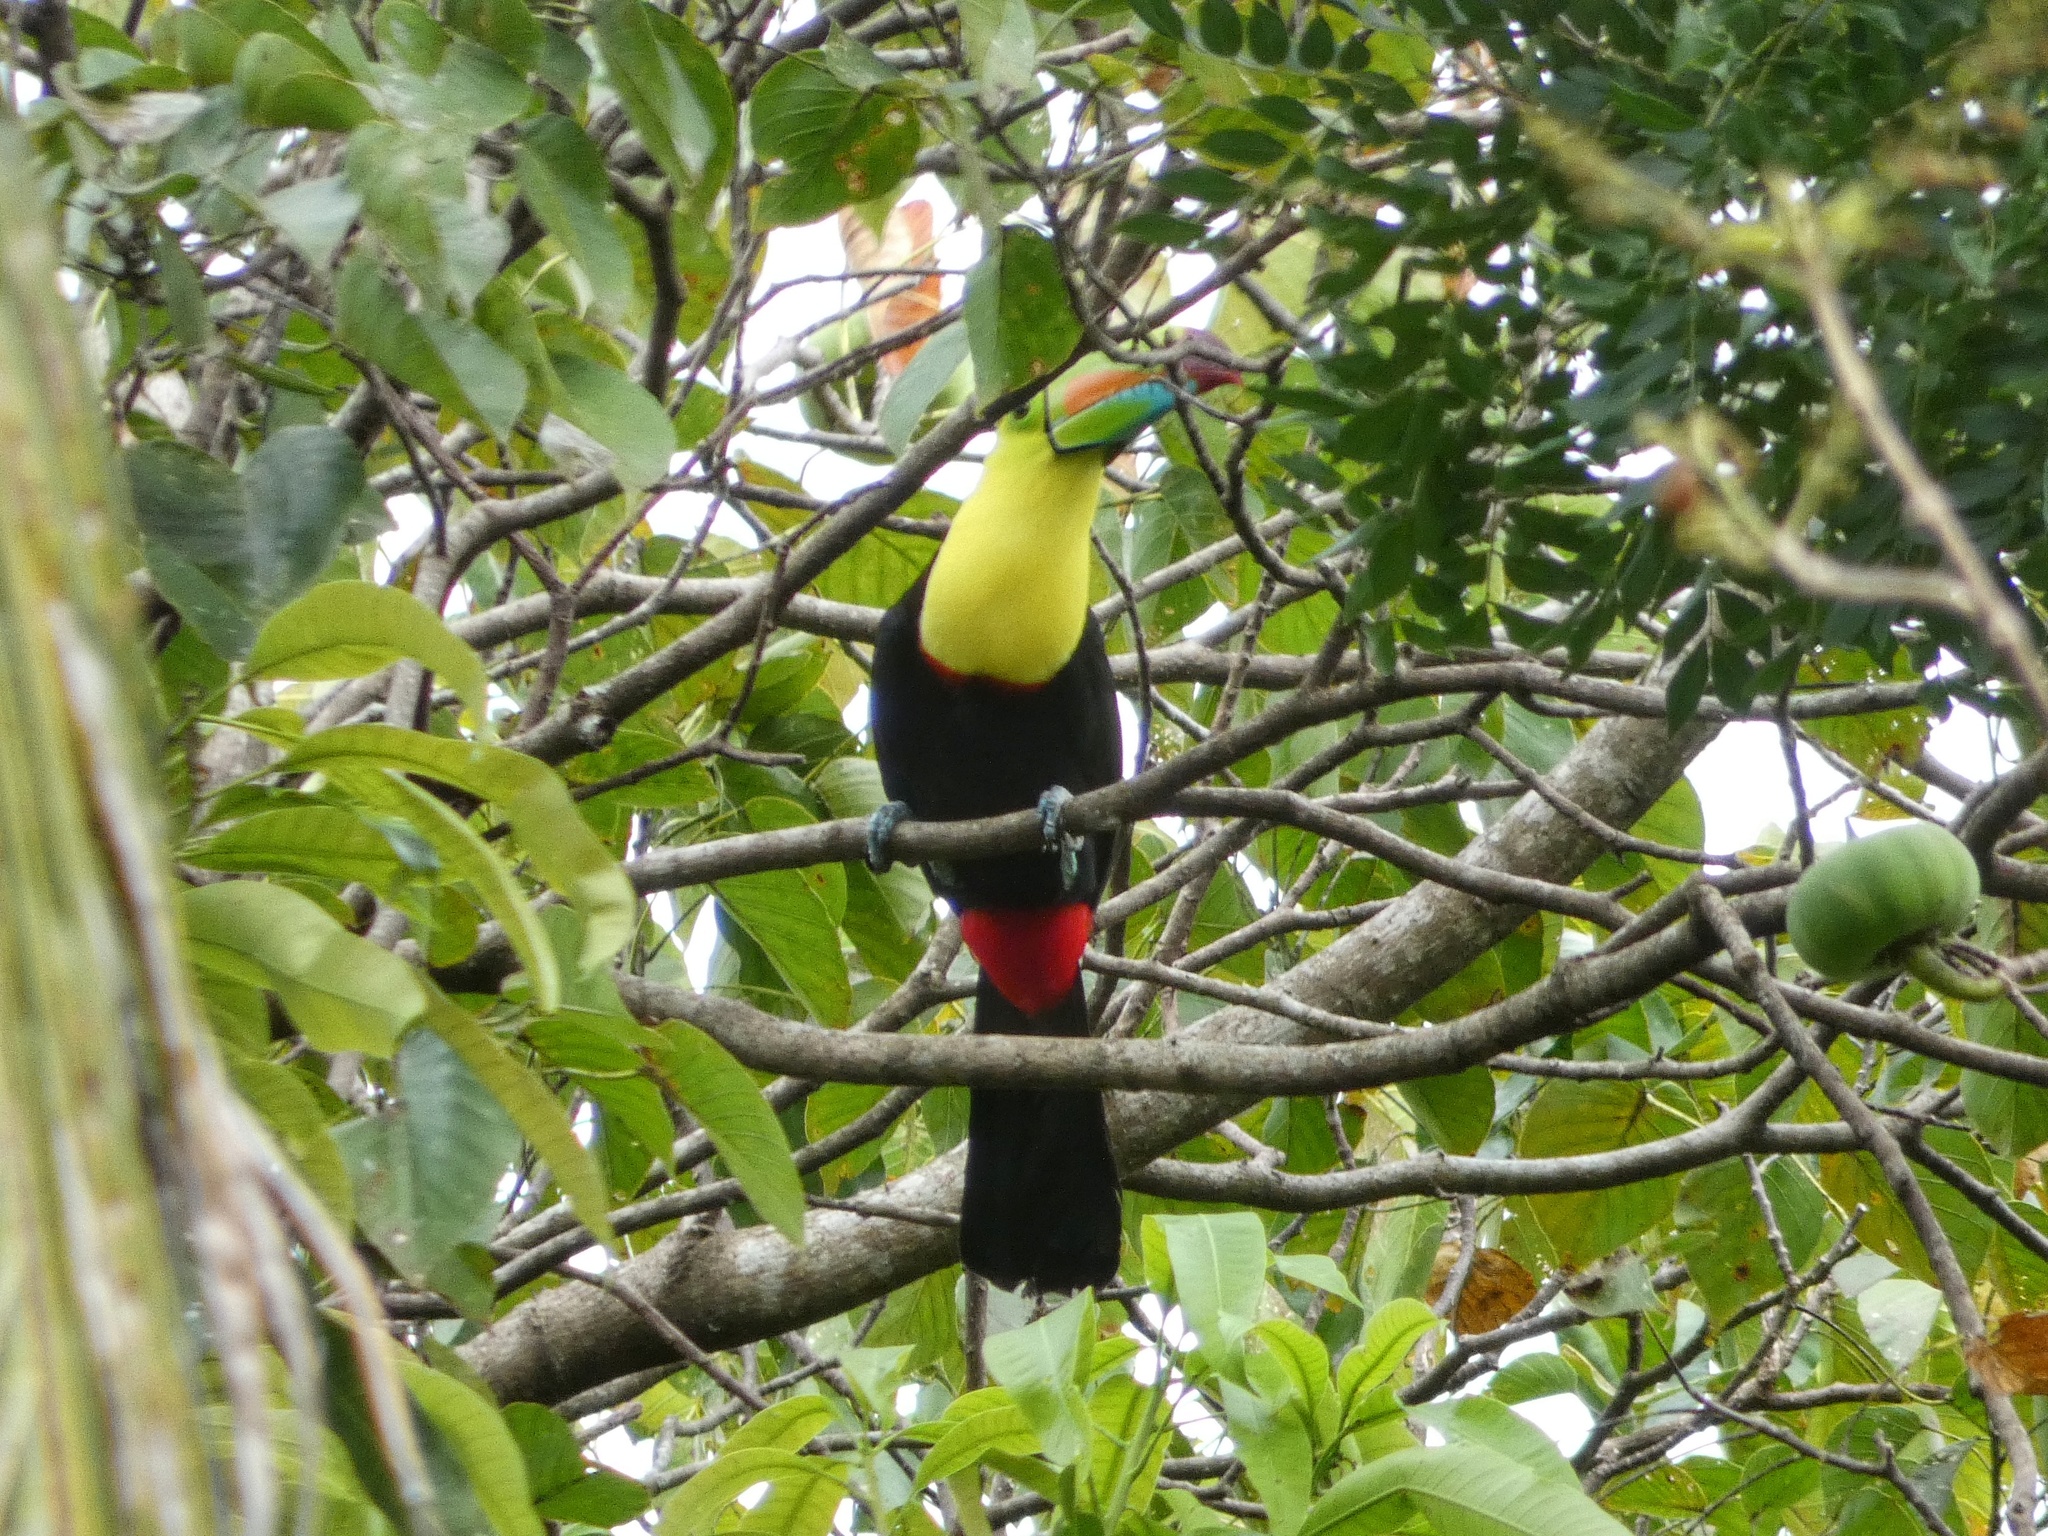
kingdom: Animalia
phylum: Chordata
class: Aves
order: Piciformes
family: Ramphastidae
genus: Ramphastos
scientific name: Ramphastos sulfuratus
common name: Keel-billed toucan
